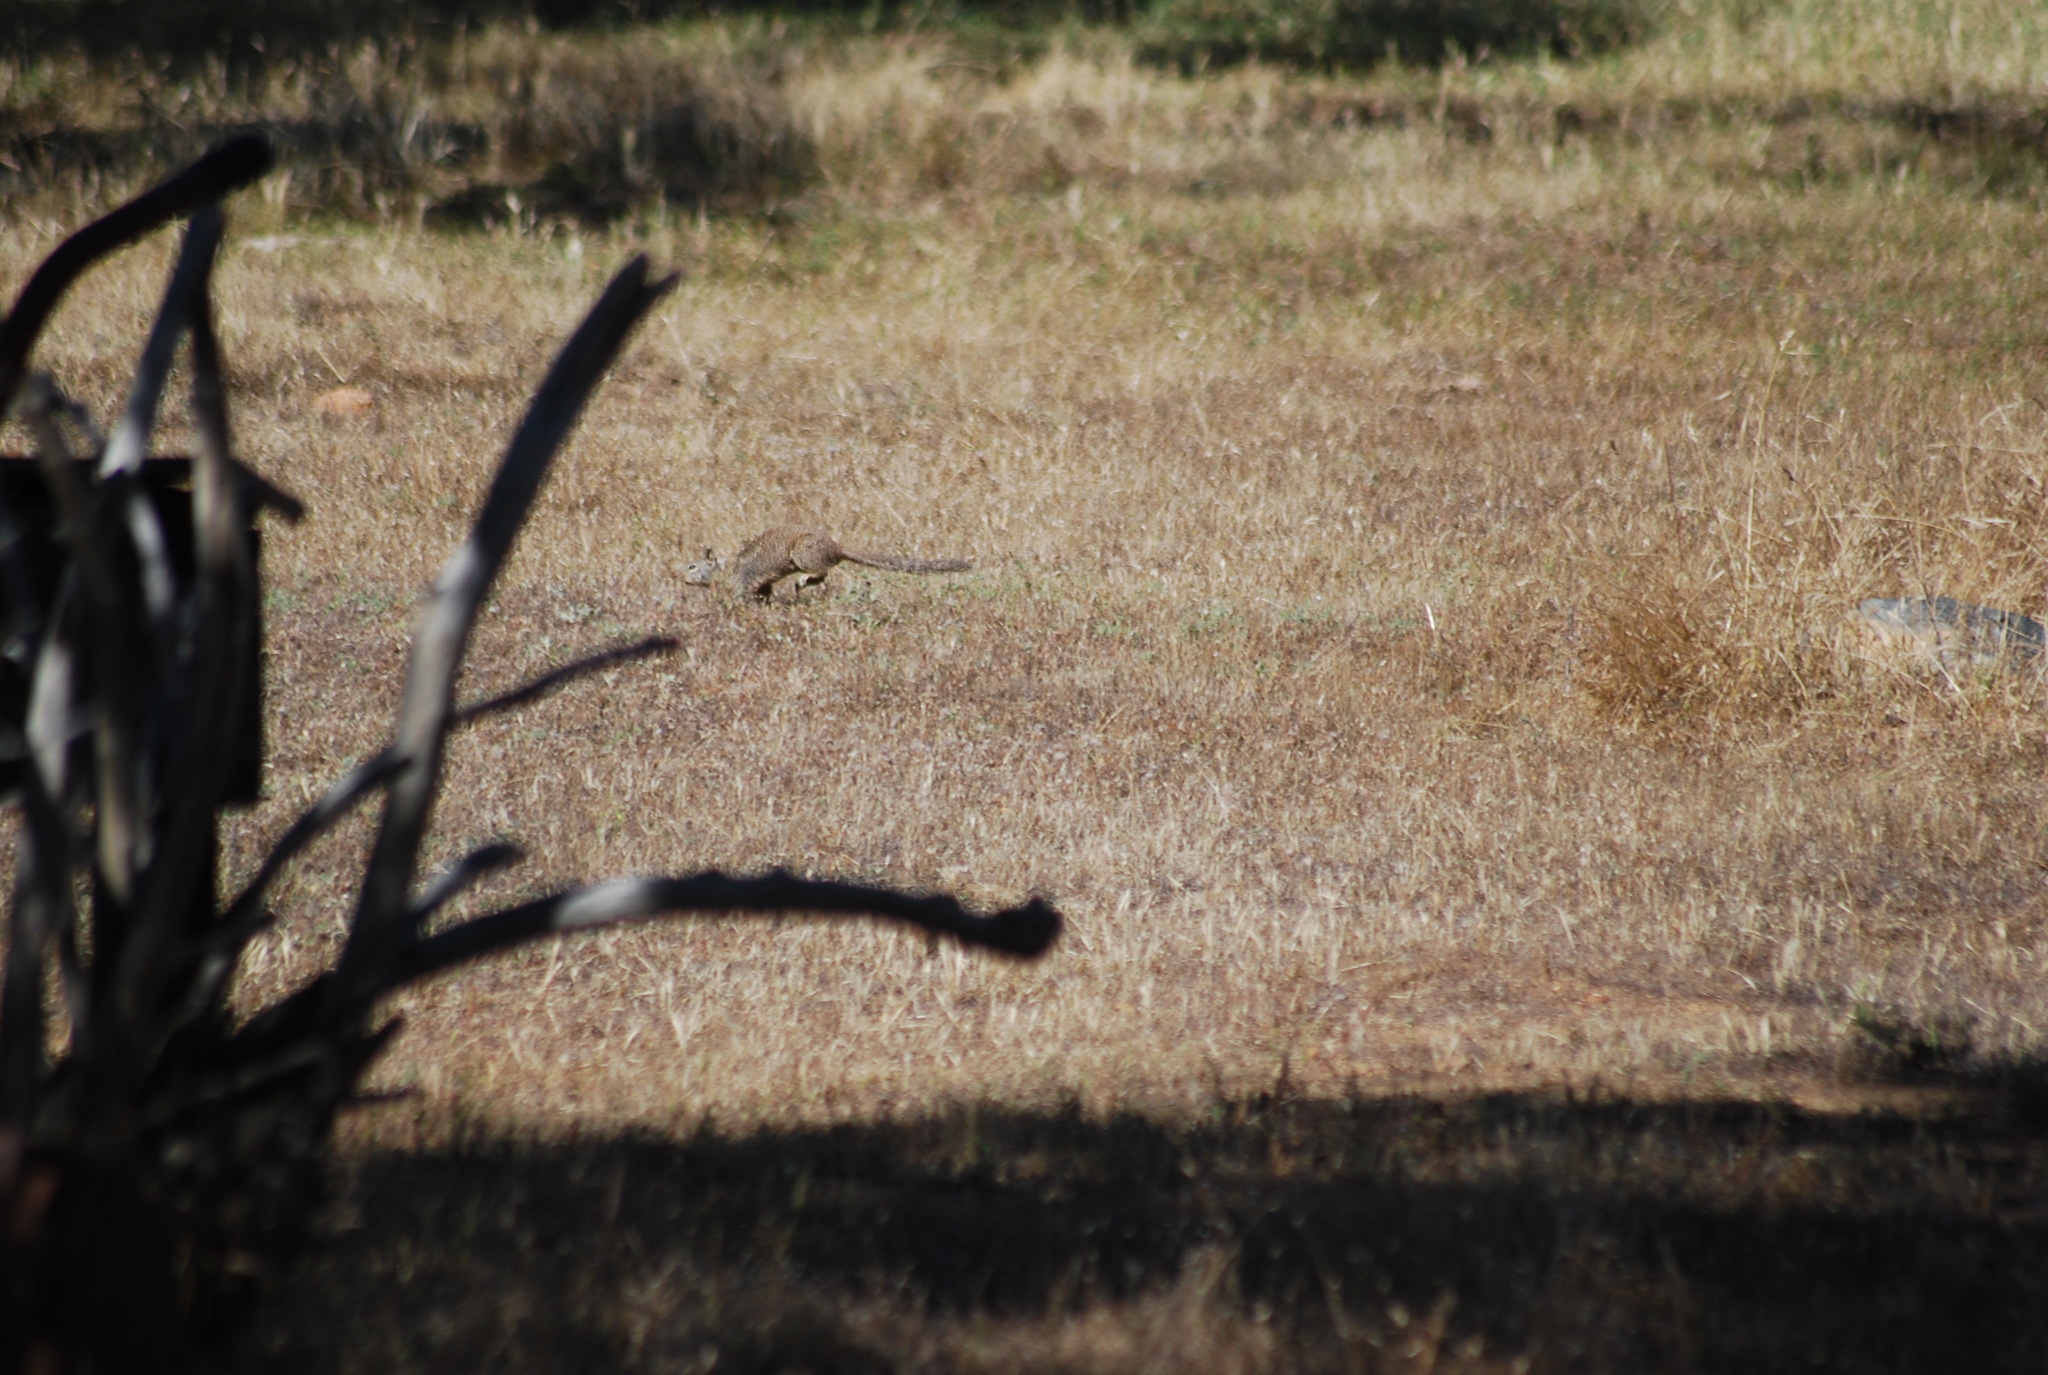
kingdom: Animalia
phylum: Chordata
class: Mammalia
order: Rodentia
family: Sciuridae
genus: Otospermophilus
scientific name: Otospermophilus beecheyi
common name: California ground squirrel
